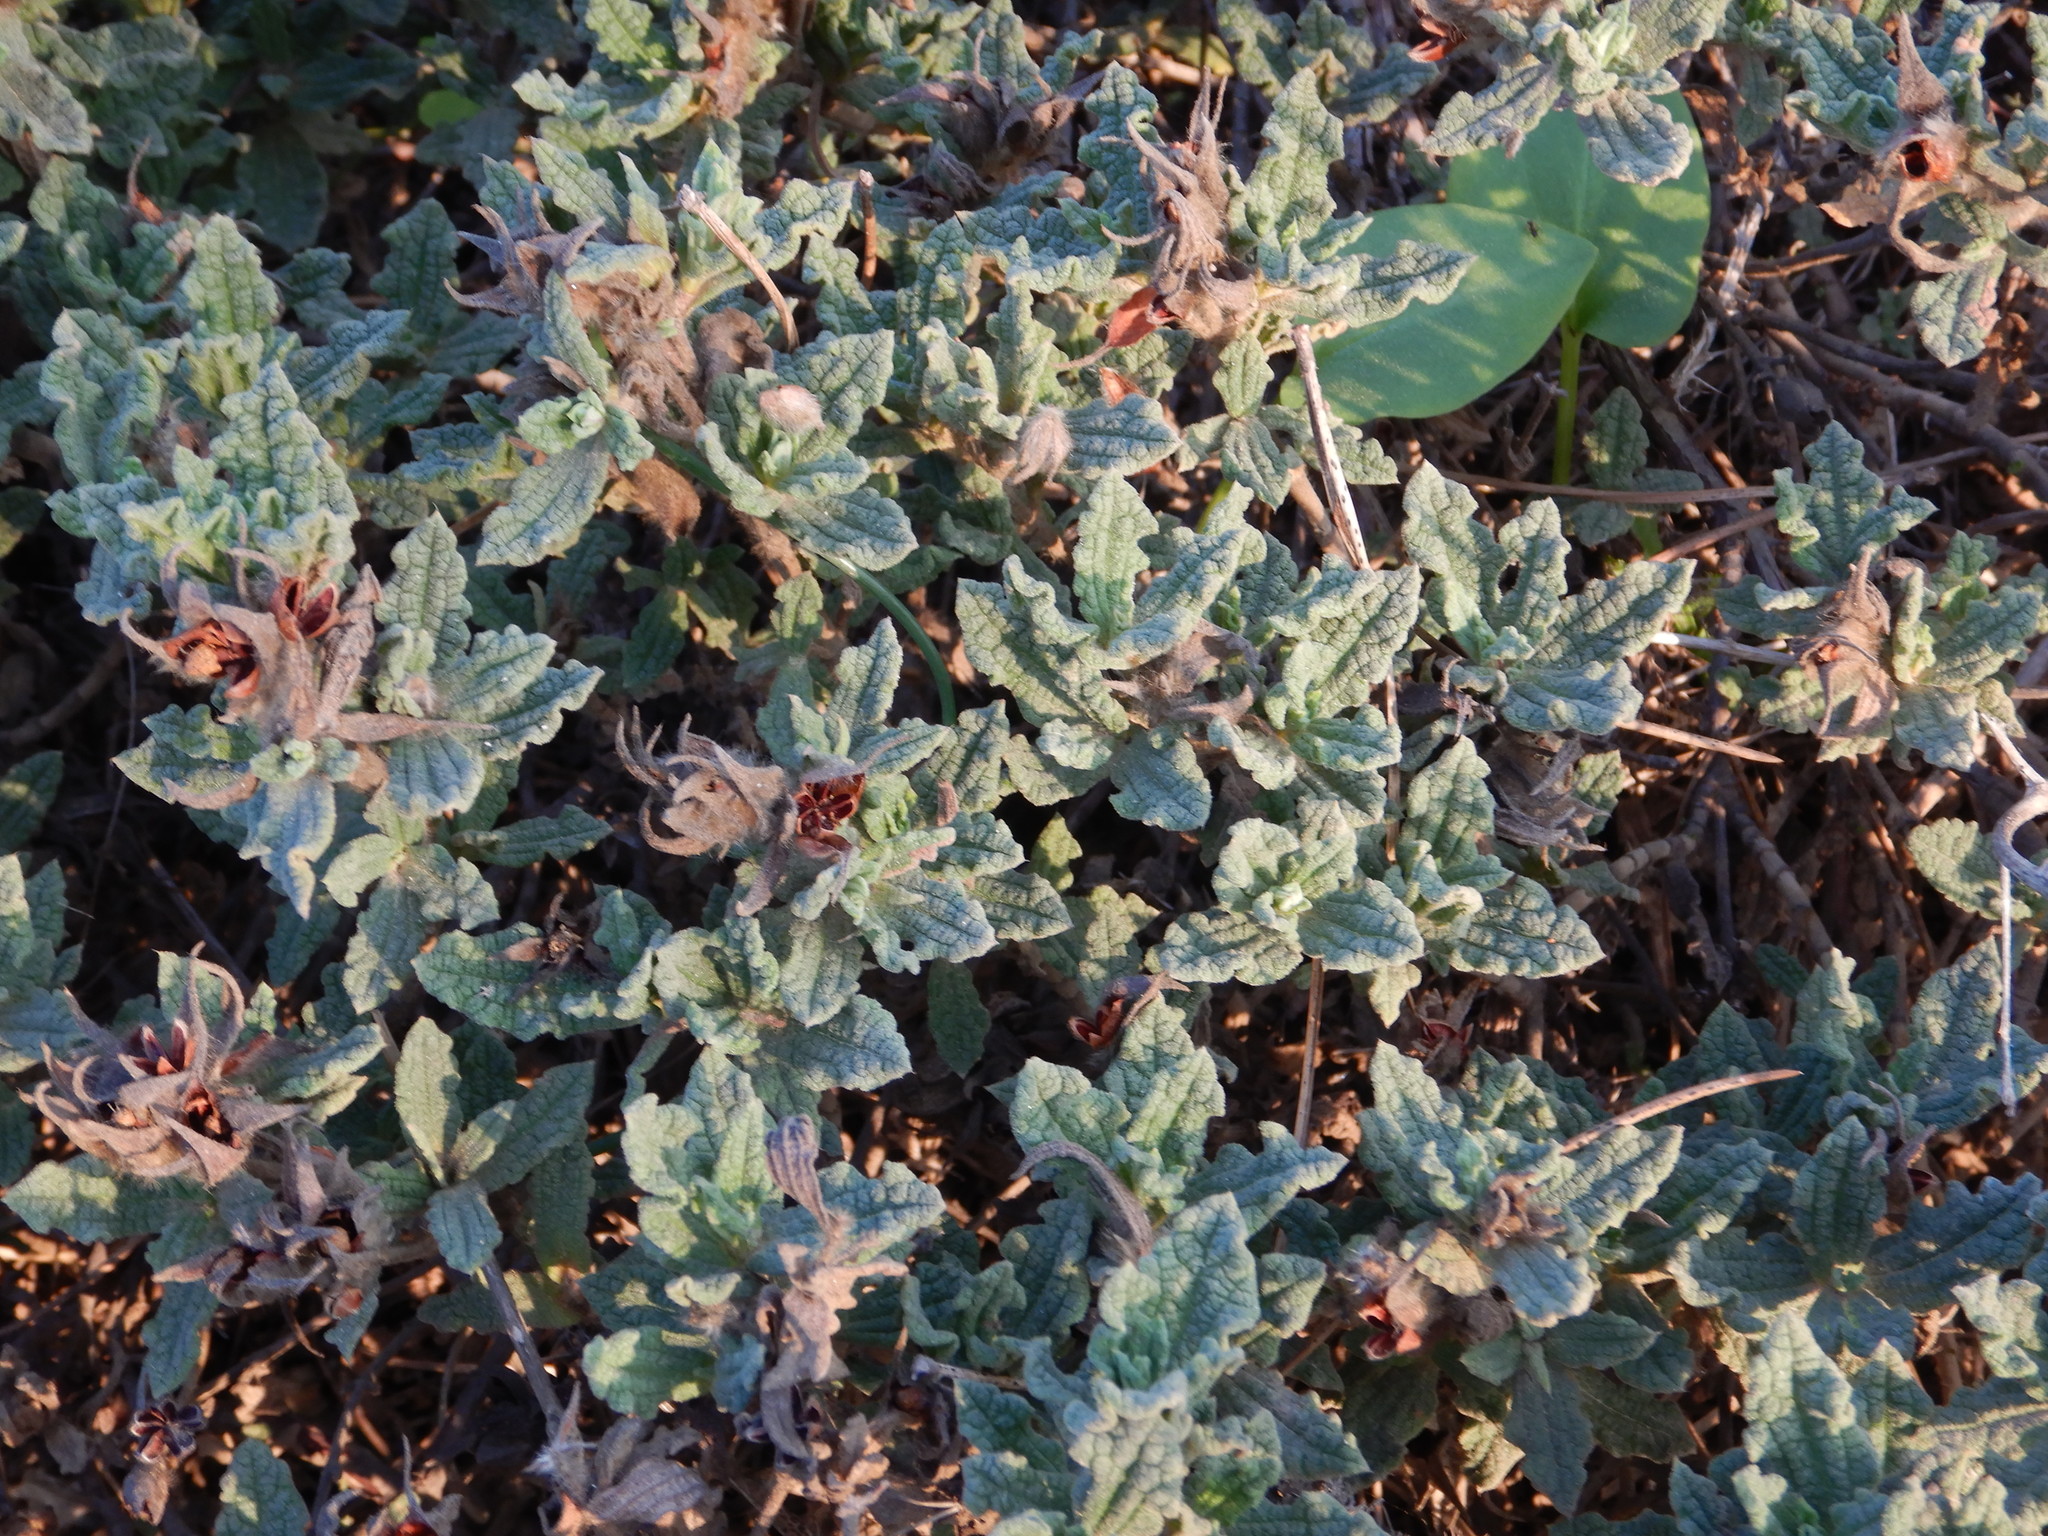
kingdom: Plantae
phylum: Tracheophyta
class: Magnoliopsida
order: Malvales
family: Cistaceae
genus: Cistus
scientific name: Cistus crispus
